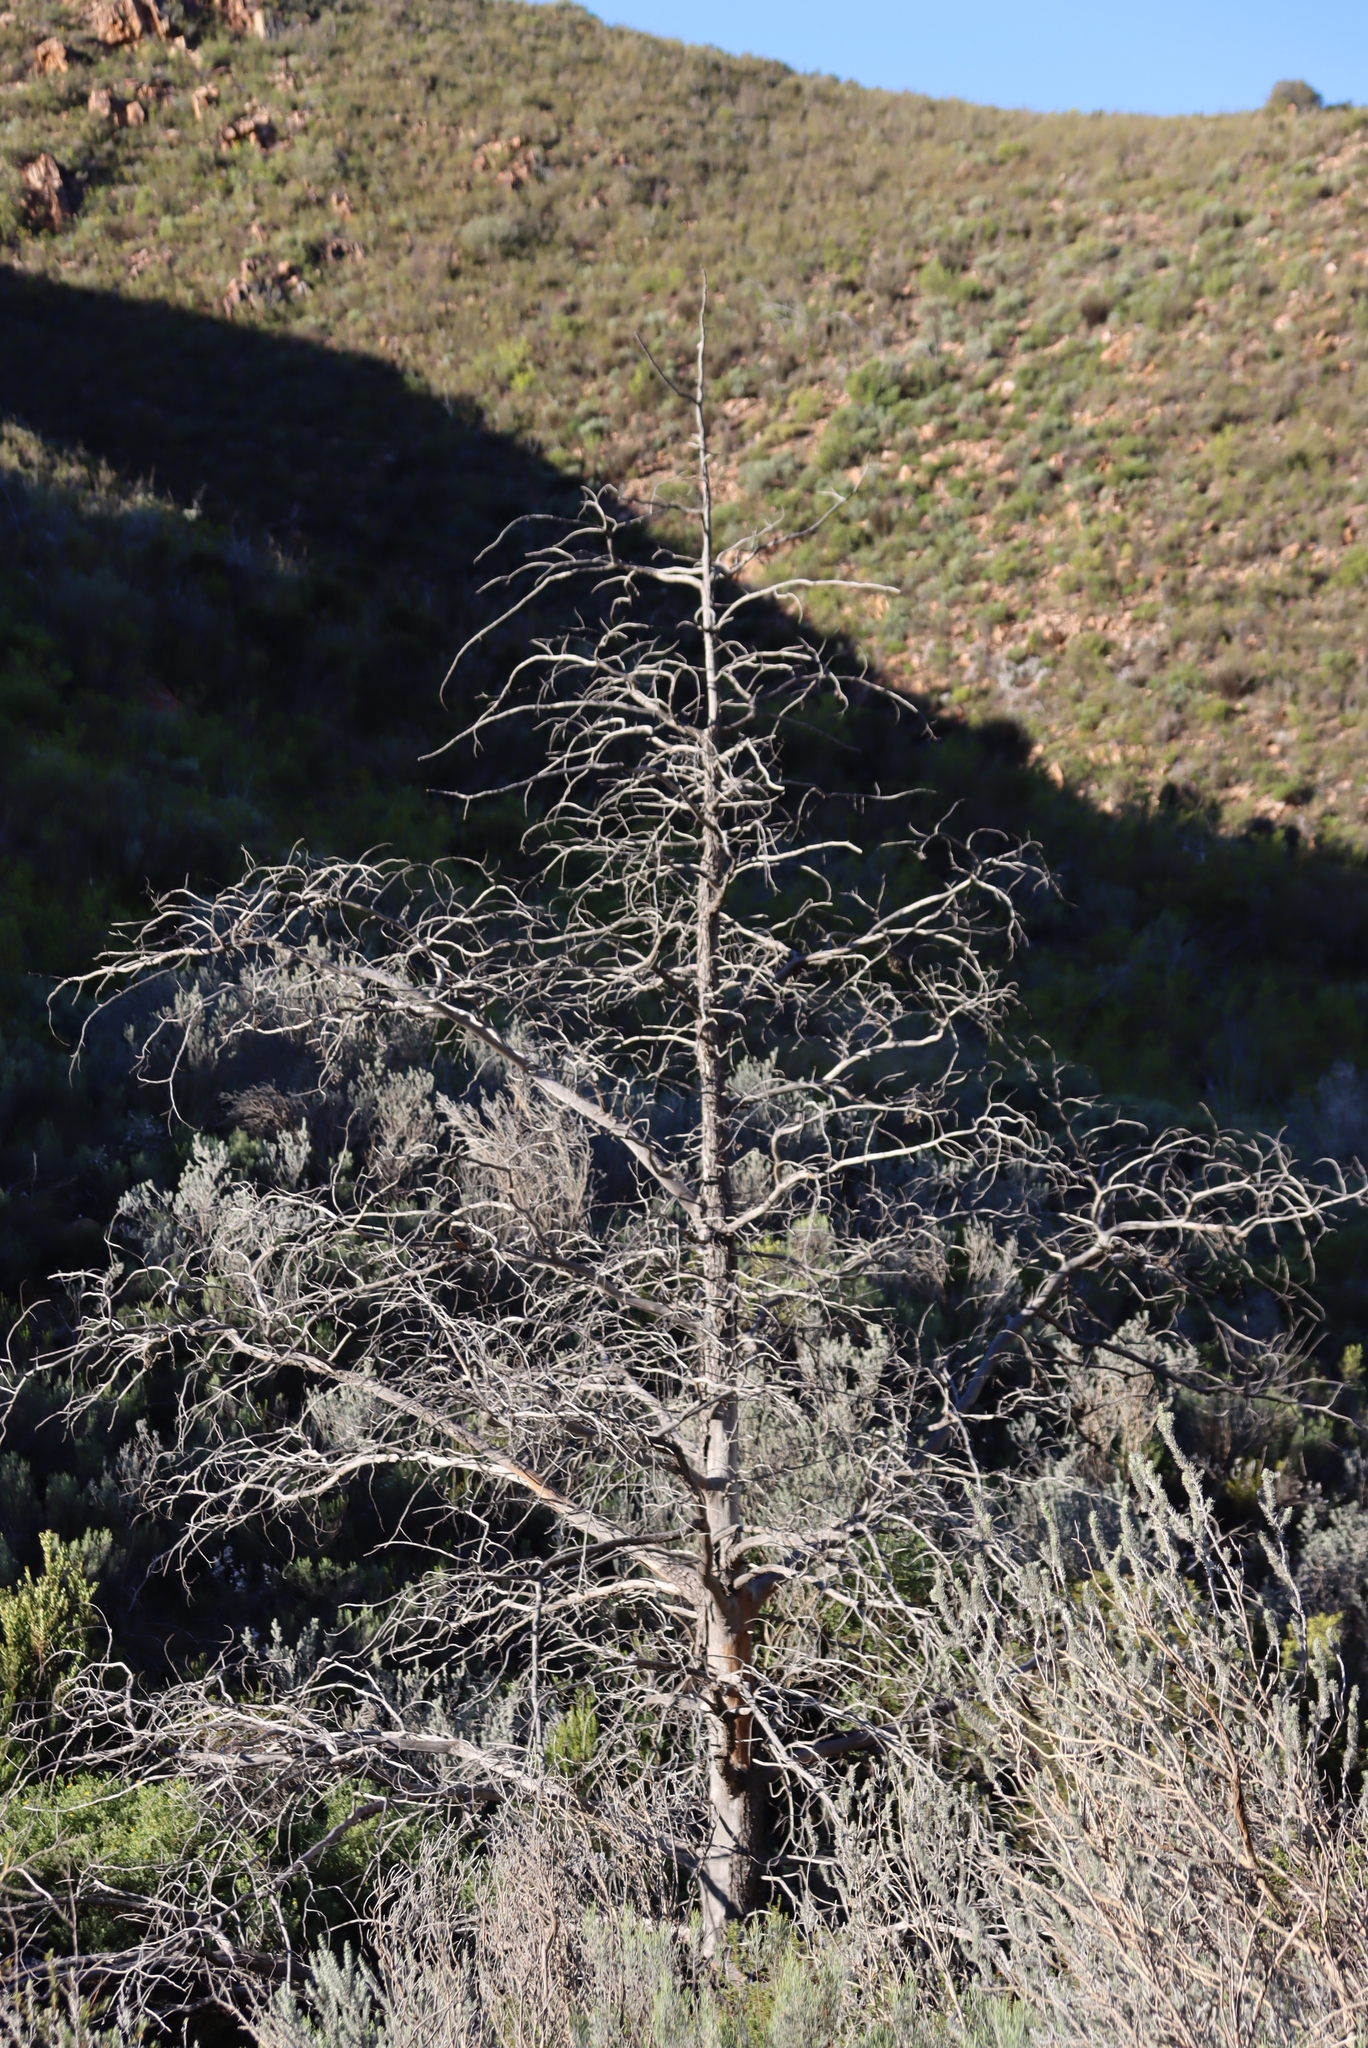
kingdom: Plantae
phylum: Tracheophyta
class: Pinopsida
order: Pinales
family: Cupressaceae
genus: Widdringtonia
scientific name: Widdringtonia schwarzii
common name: Baviaans cedar
